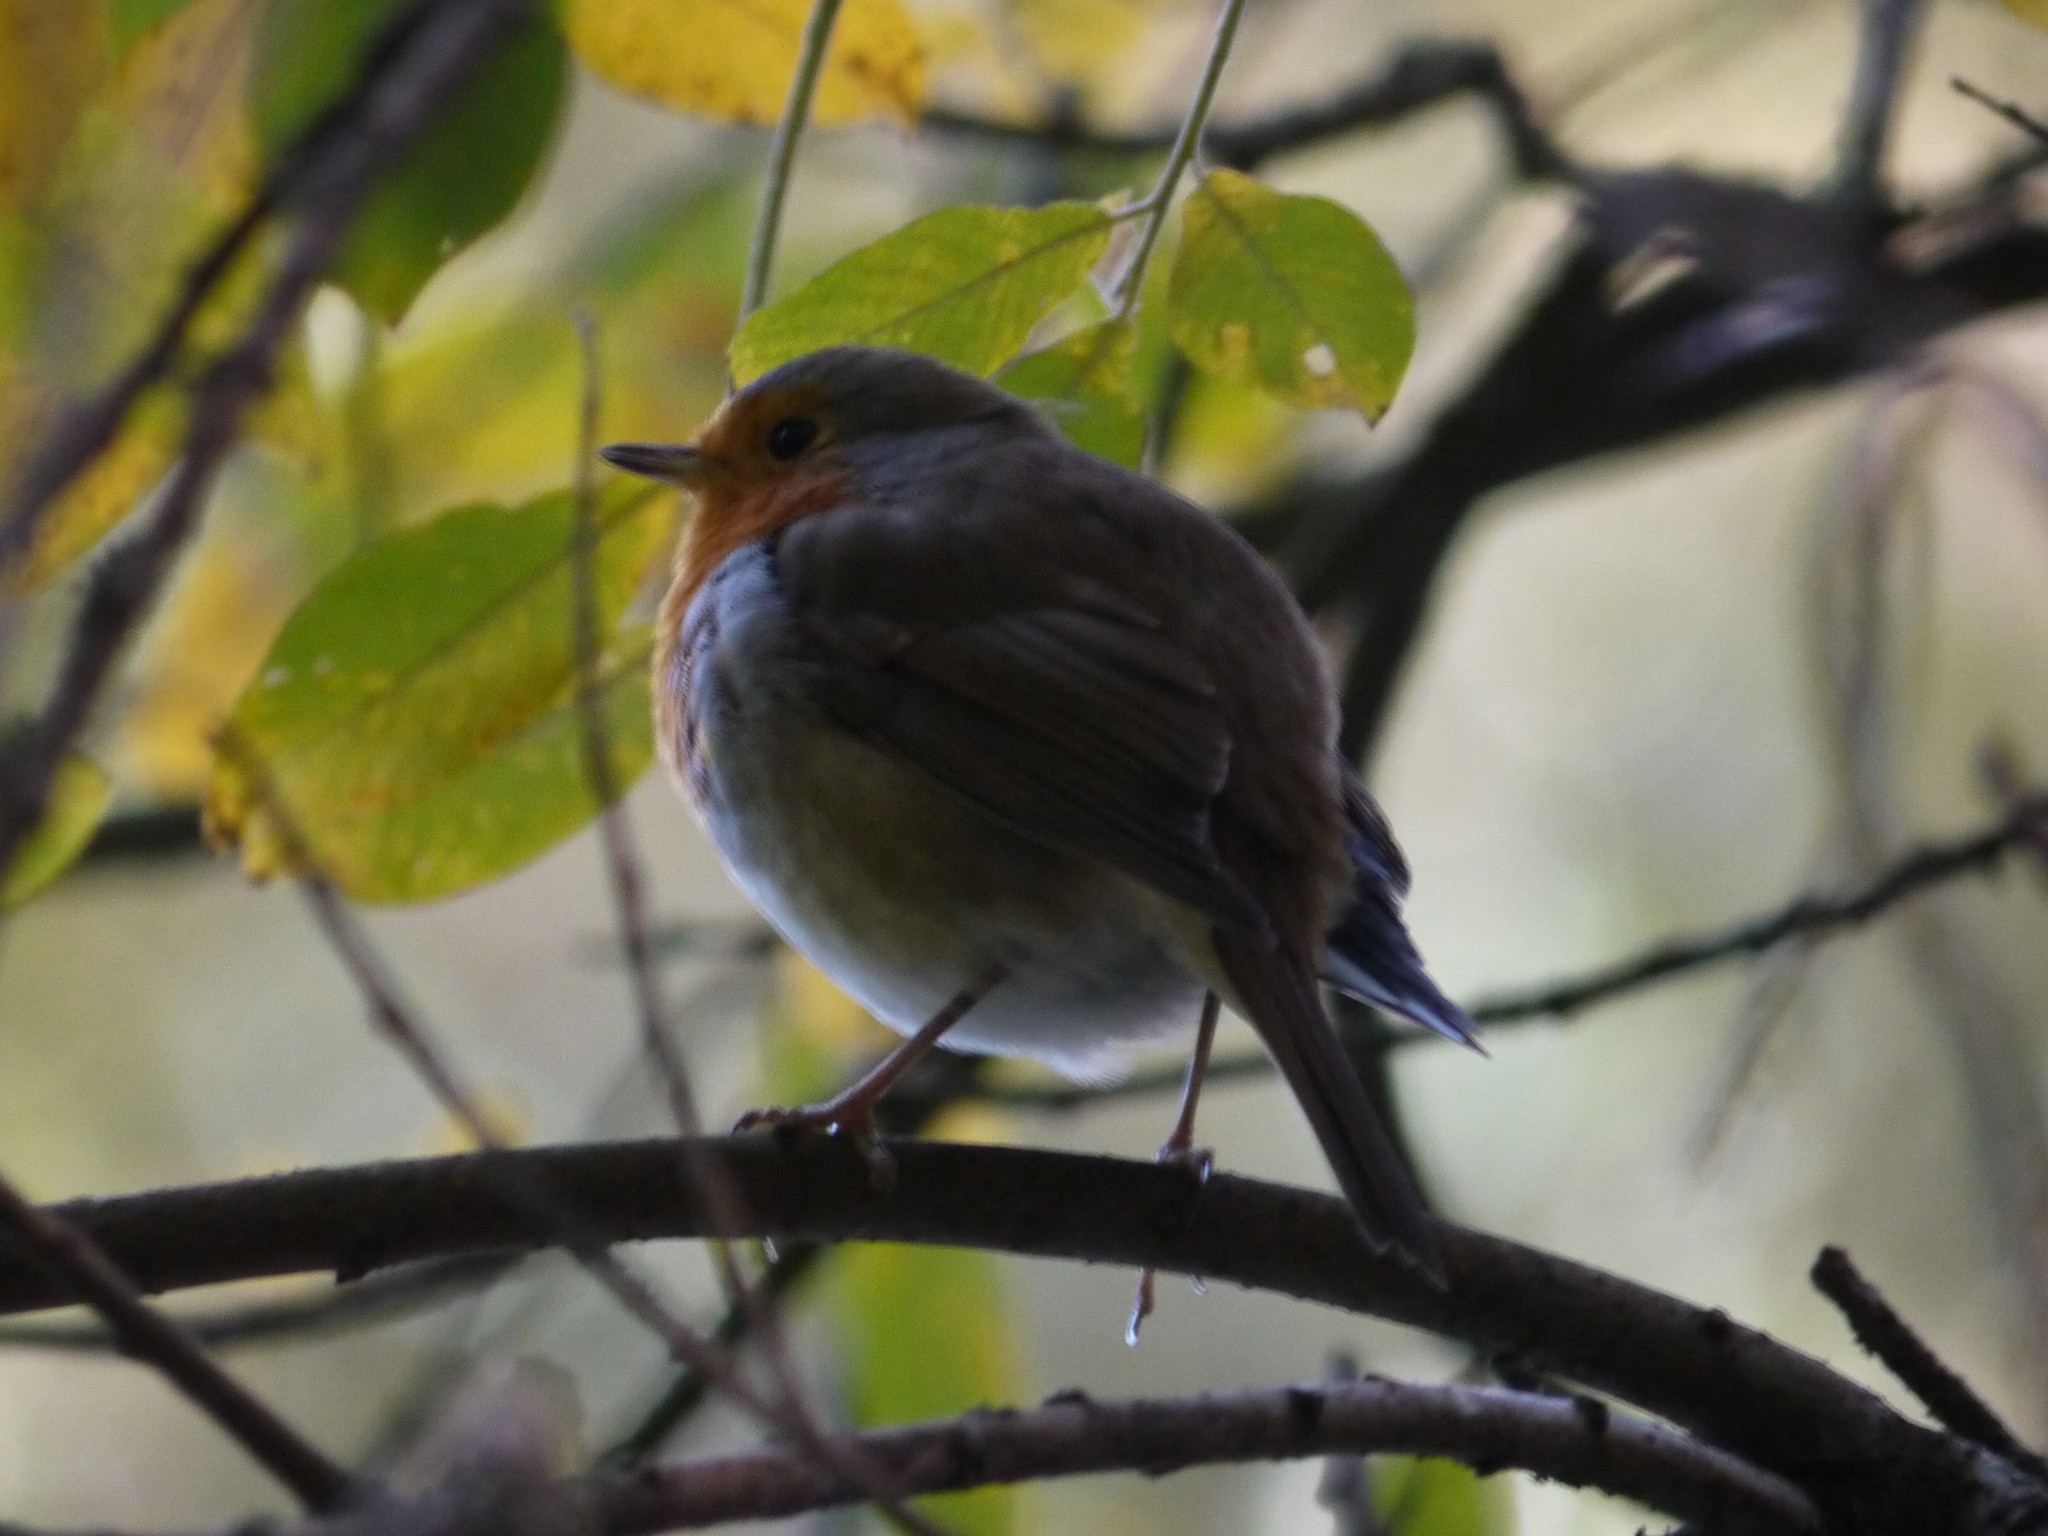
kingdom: Animalia
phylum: Chordata
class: Aves
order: Passeriformes
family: Muscicapidae
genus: Erithacus
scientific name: Erithacus rubecula
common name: European robin
